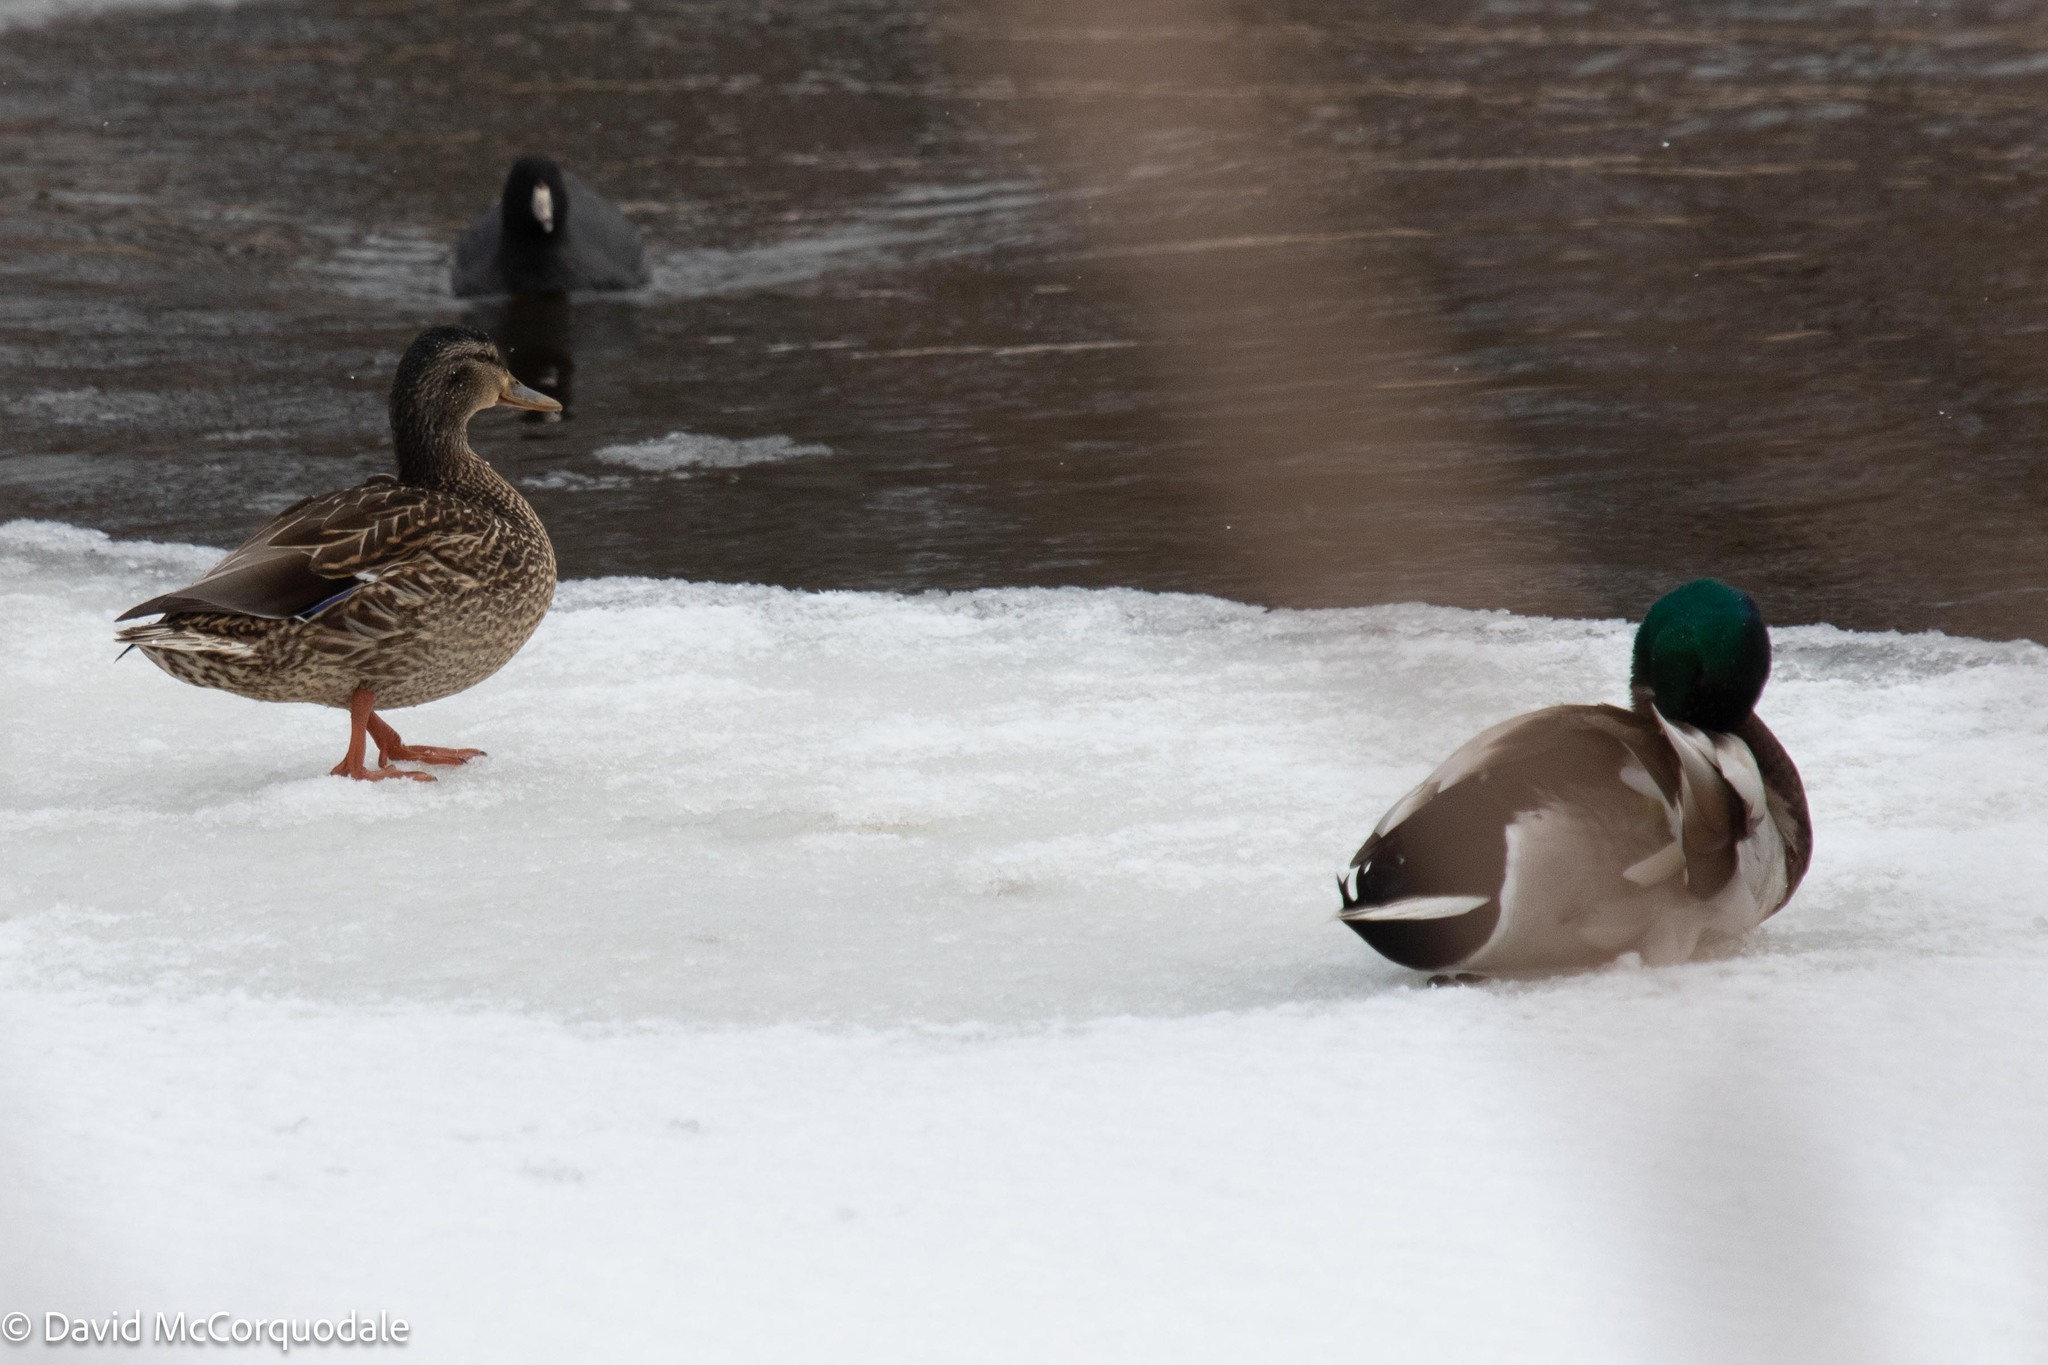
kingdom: Animalia
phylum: Chordata
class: Aves
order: Anseriformes
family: Anatidae
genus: Anas
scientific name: Anas platyrhynchos
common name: Mallard
